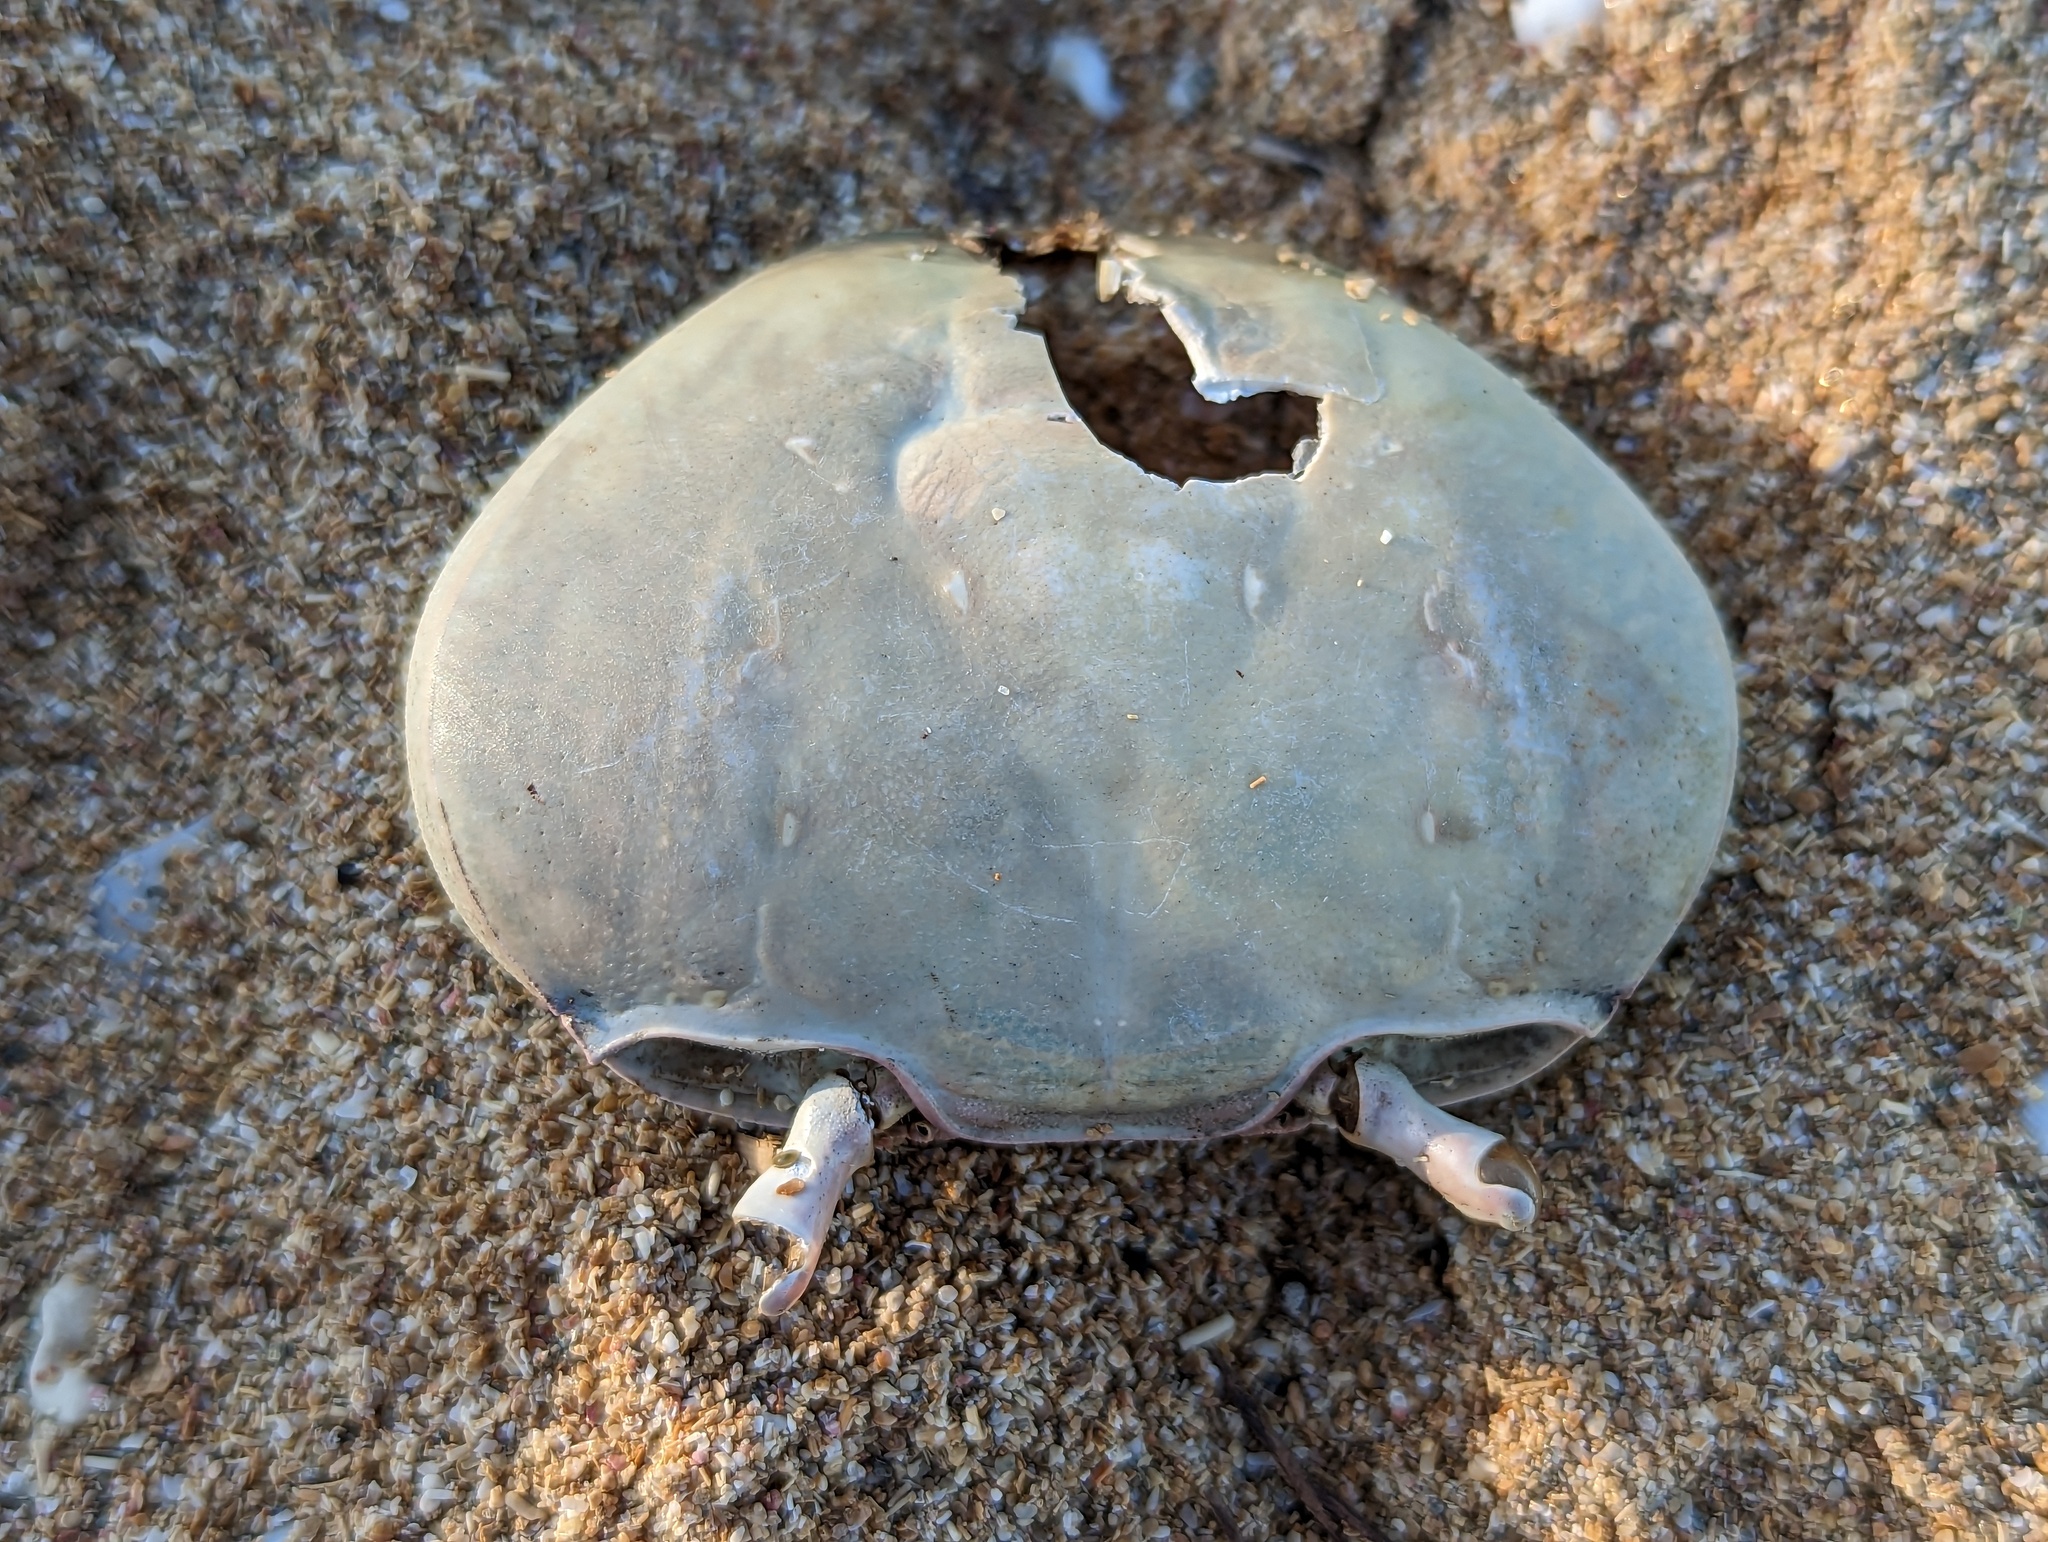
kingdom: Animalia
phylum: Arthropoda
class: Malacostraca
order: Decapoda
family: Gecarcinidae
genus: Cardisoma
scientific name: Cardisoma guanhumi
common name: Great land crab
